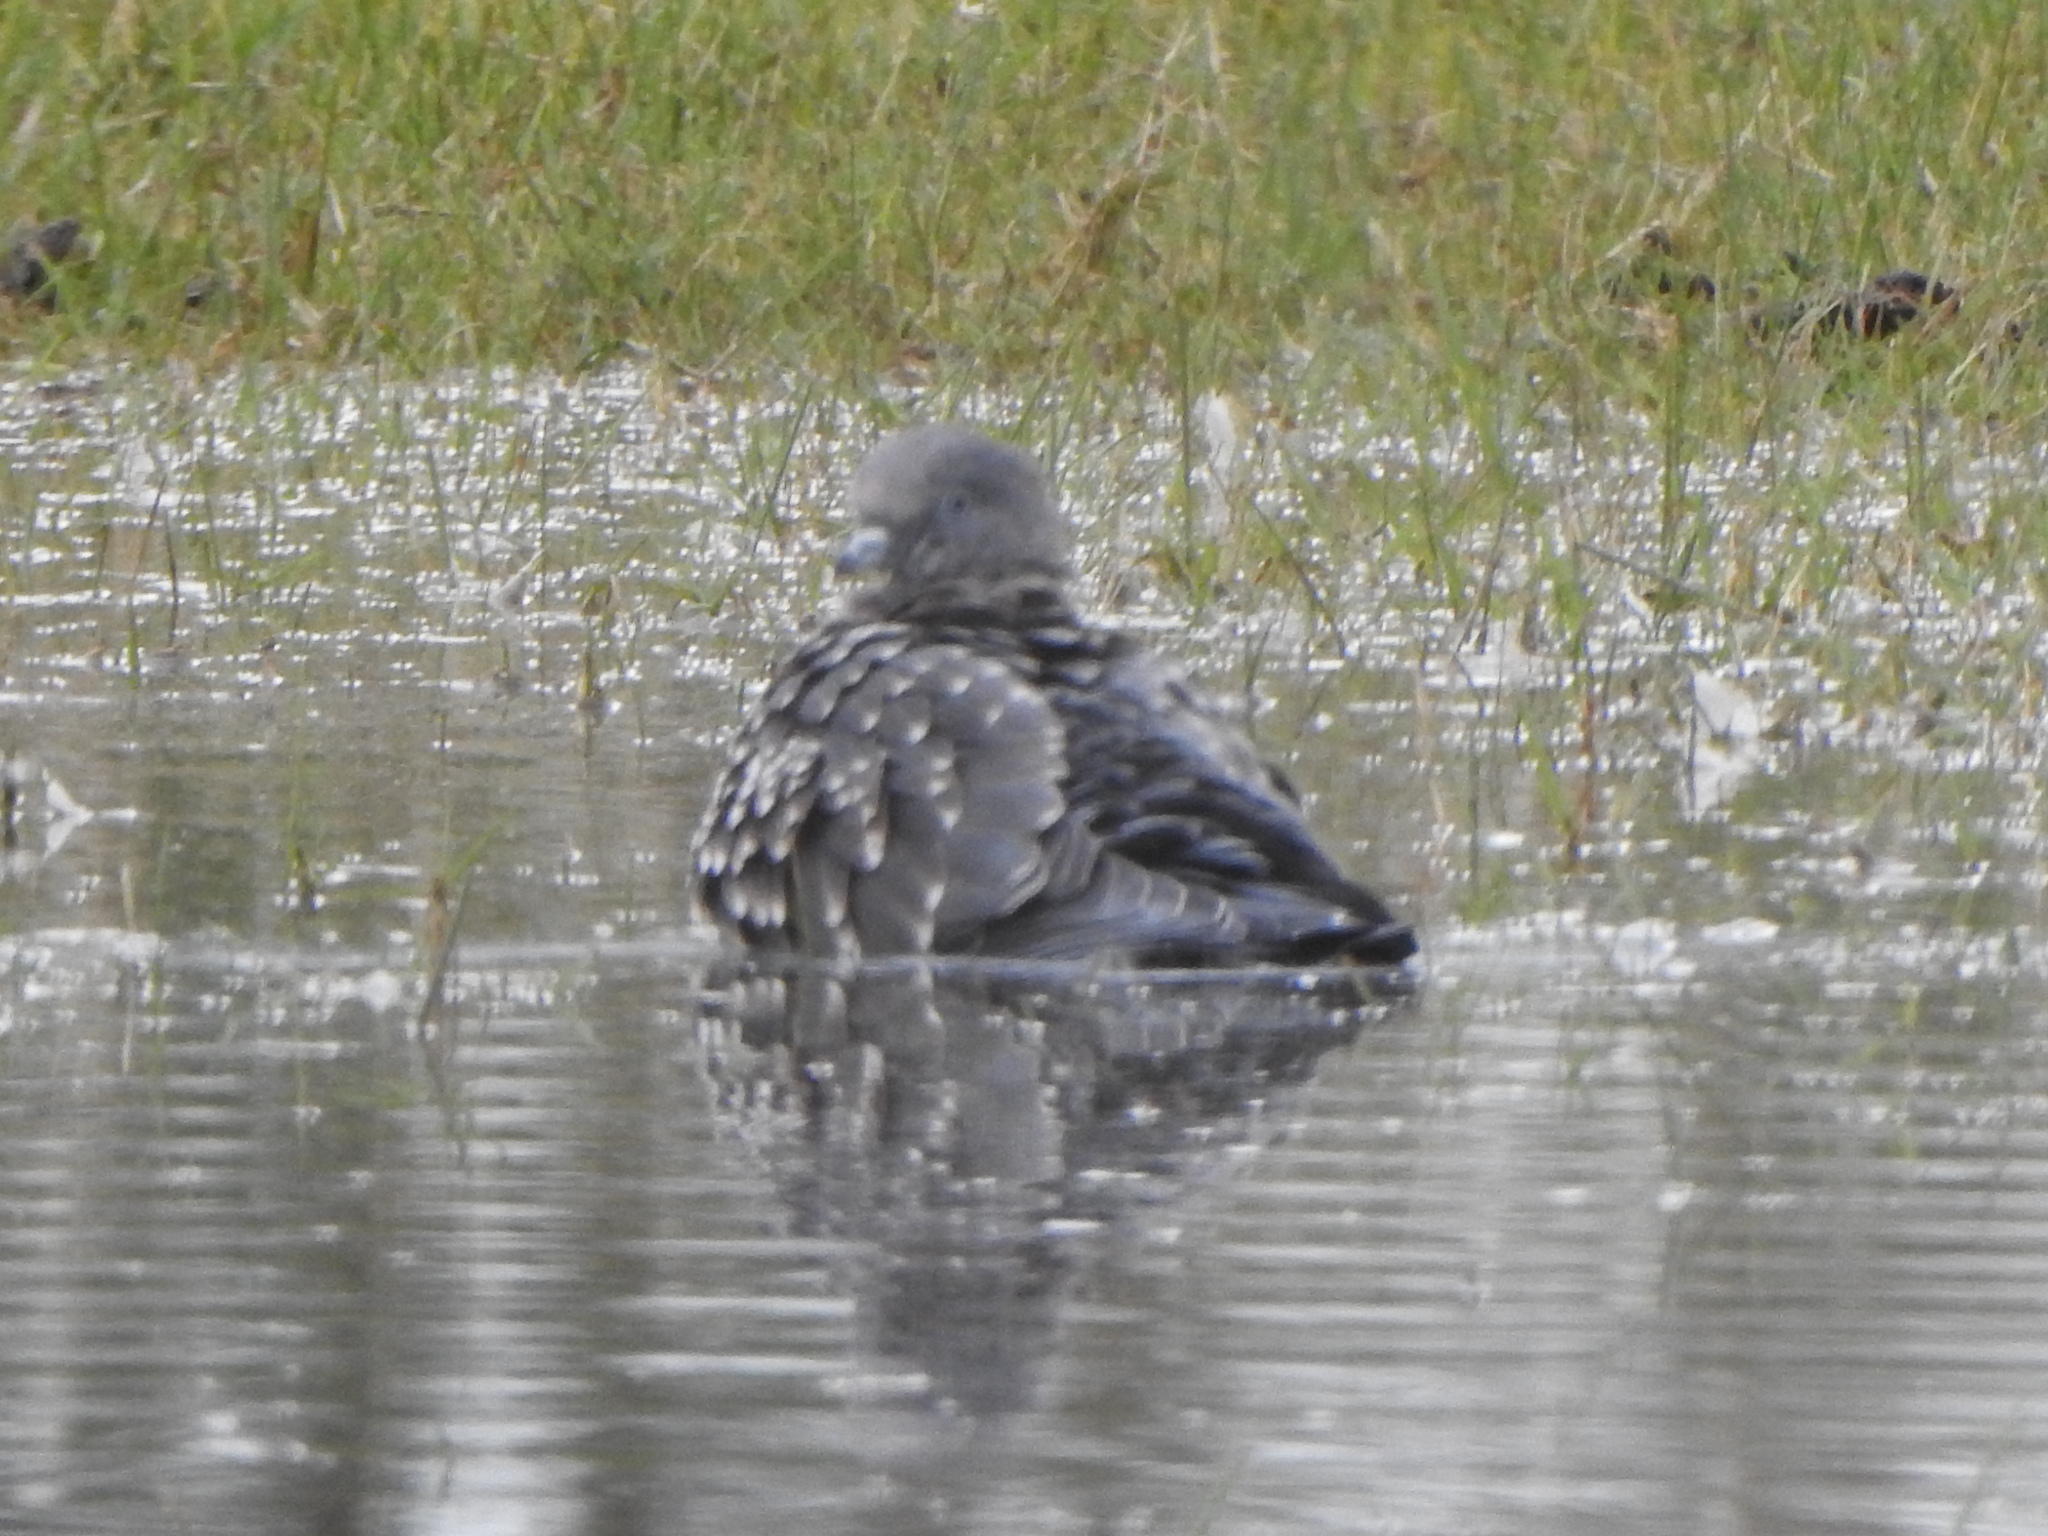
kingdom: Animalia
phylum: Chordata
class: Aves
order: Columbiformes
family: Columbidae
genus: Patagioenas
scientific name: Patagioenas maculosa
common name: Spot-winged pigeon
